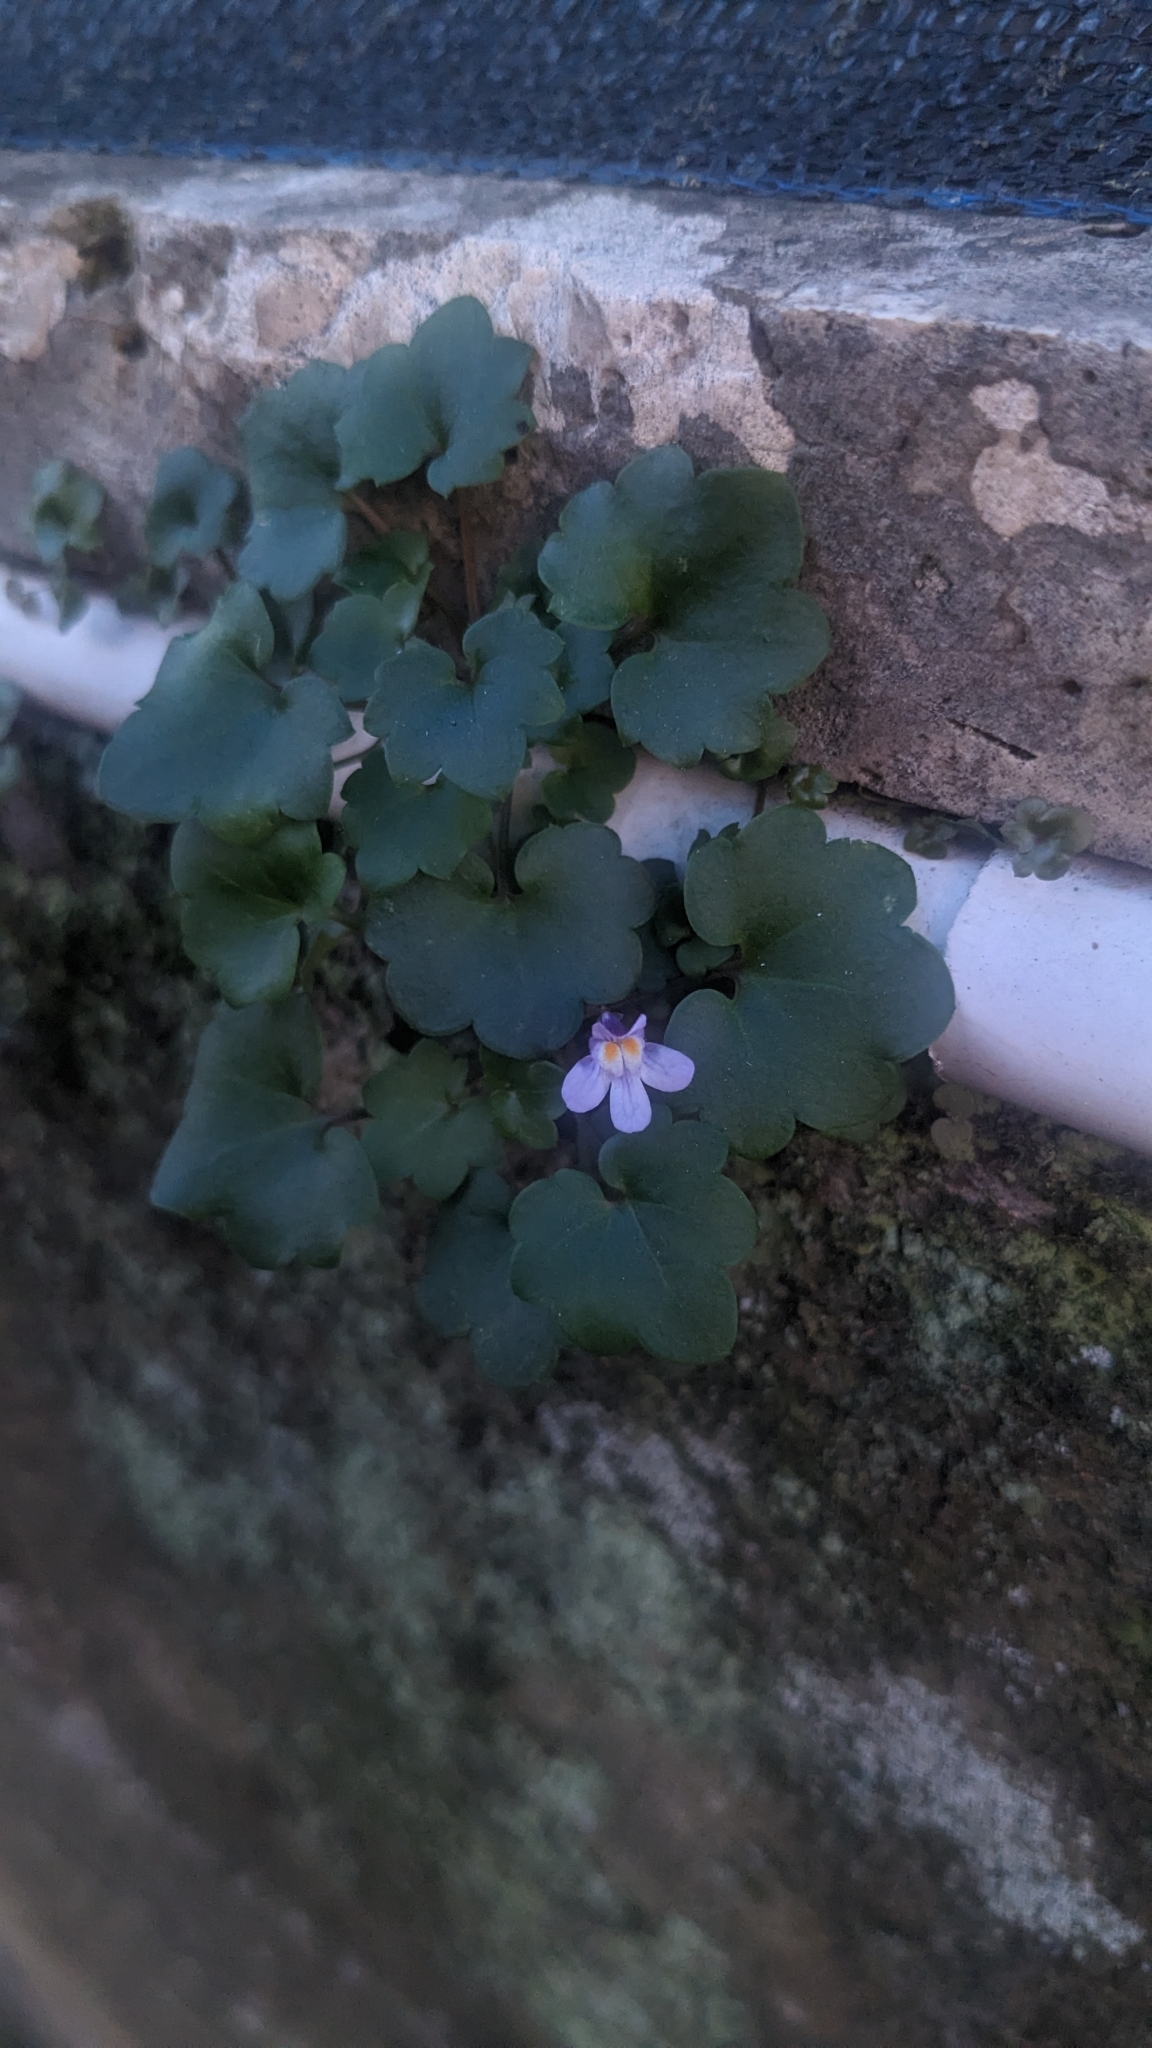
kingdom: Plantae
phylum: Tracheophyta
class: Magnoliopsida
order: Lamiales
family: Plantaginaceae
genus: Cymbalaria
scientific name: Cymbalaria muralis
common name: Ivy-leaved toadflax
